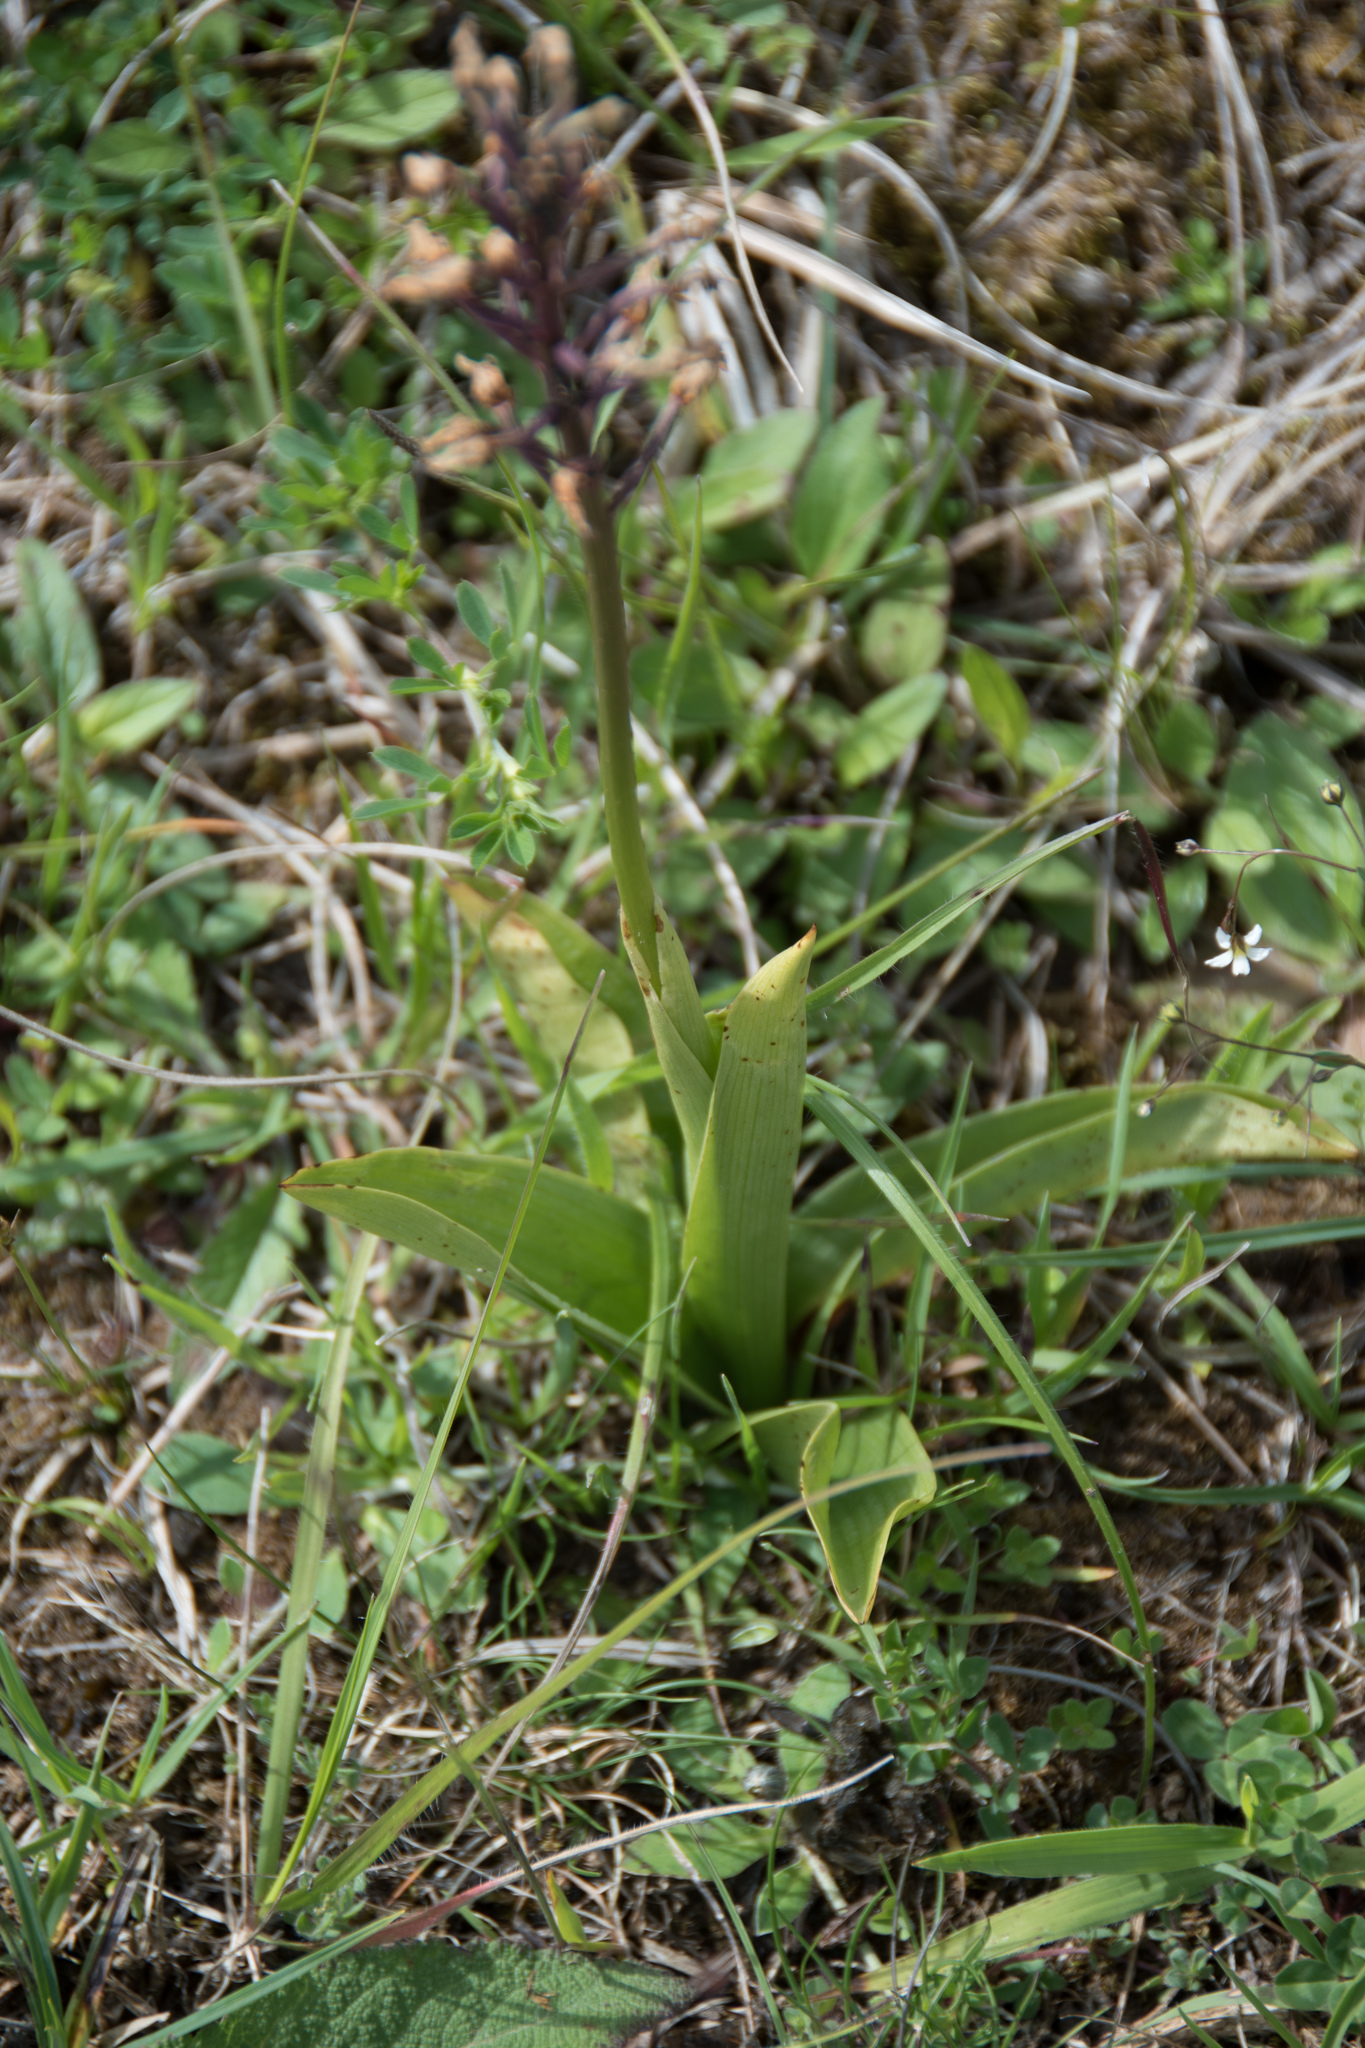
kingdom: Plantae
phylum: Tracheophyta
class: Liliopsida
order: Asparagales
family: Orchidaceae
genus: Orchis
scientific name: Orchis militaris
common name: Military orchid
